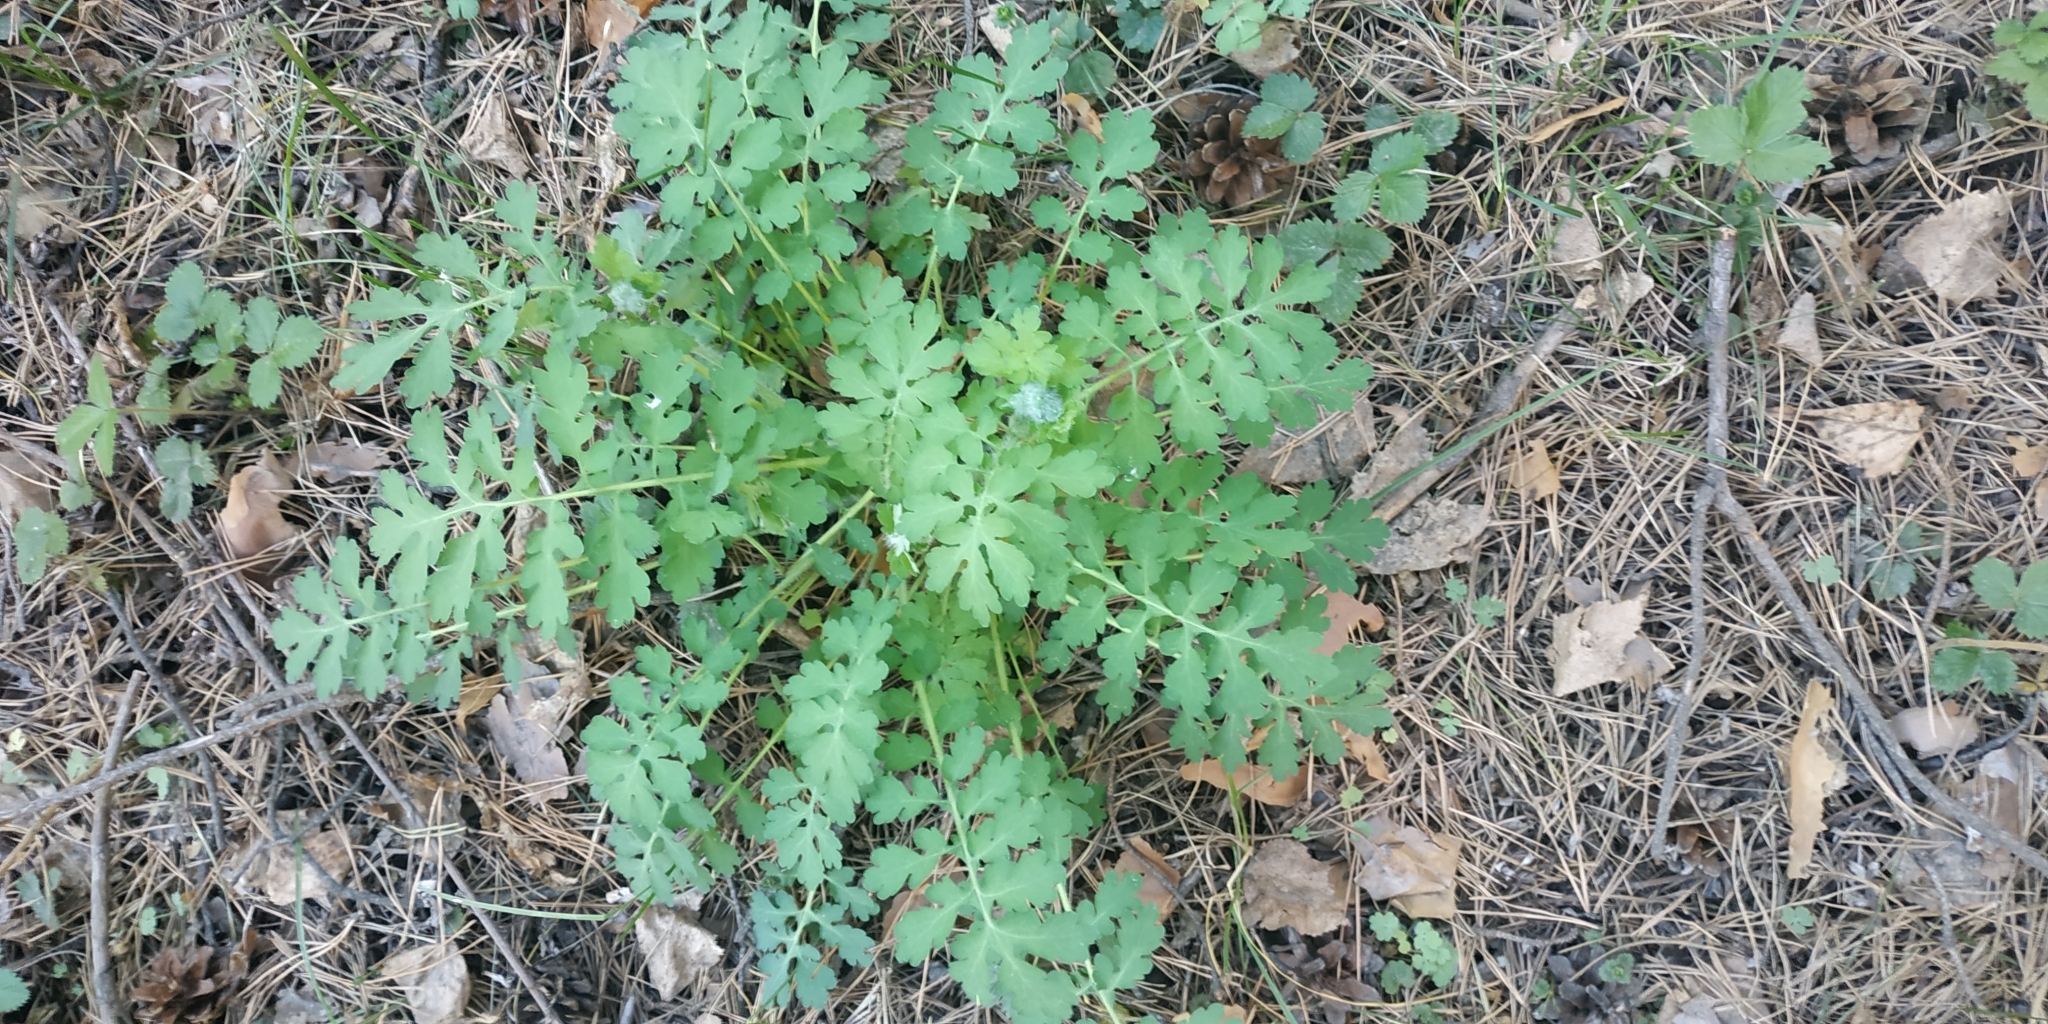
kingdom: Plantae
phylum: Tracheophyta
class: Magnoliopsida
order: Ranunculales
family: Papaveraceae
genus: Chelidonium
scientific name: Chelidonium majus
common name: Greater celandine
